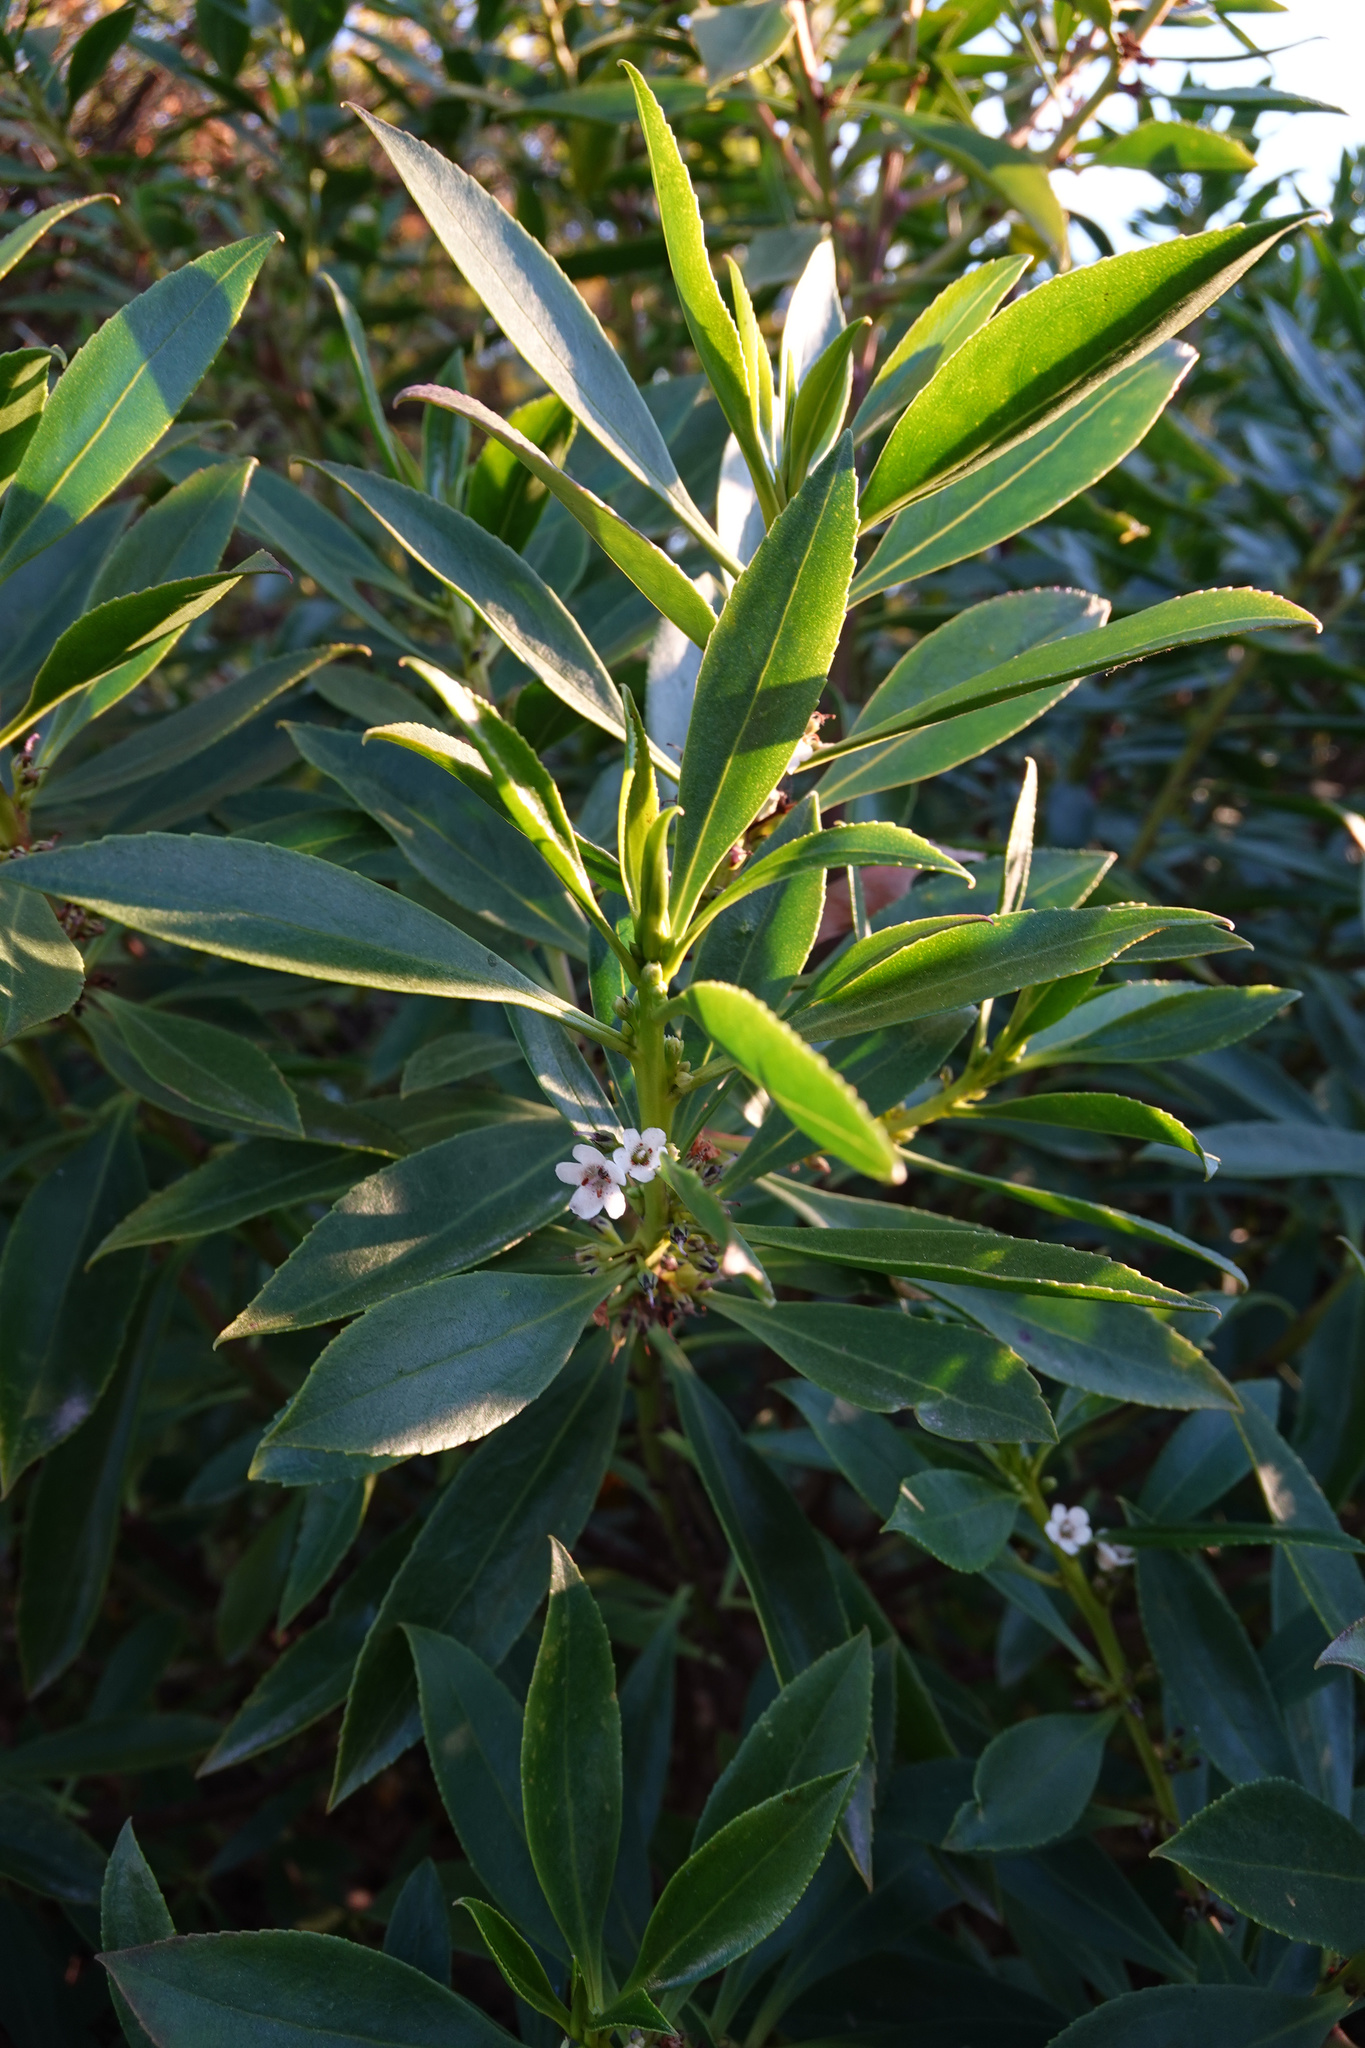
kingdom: Plantae
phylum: Tracheophyta
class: Magnoliopsida
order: Lamiales
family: Scrophulariaceae
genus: Myoporum
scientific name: Myoporum laetum
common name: Ngaio tree
